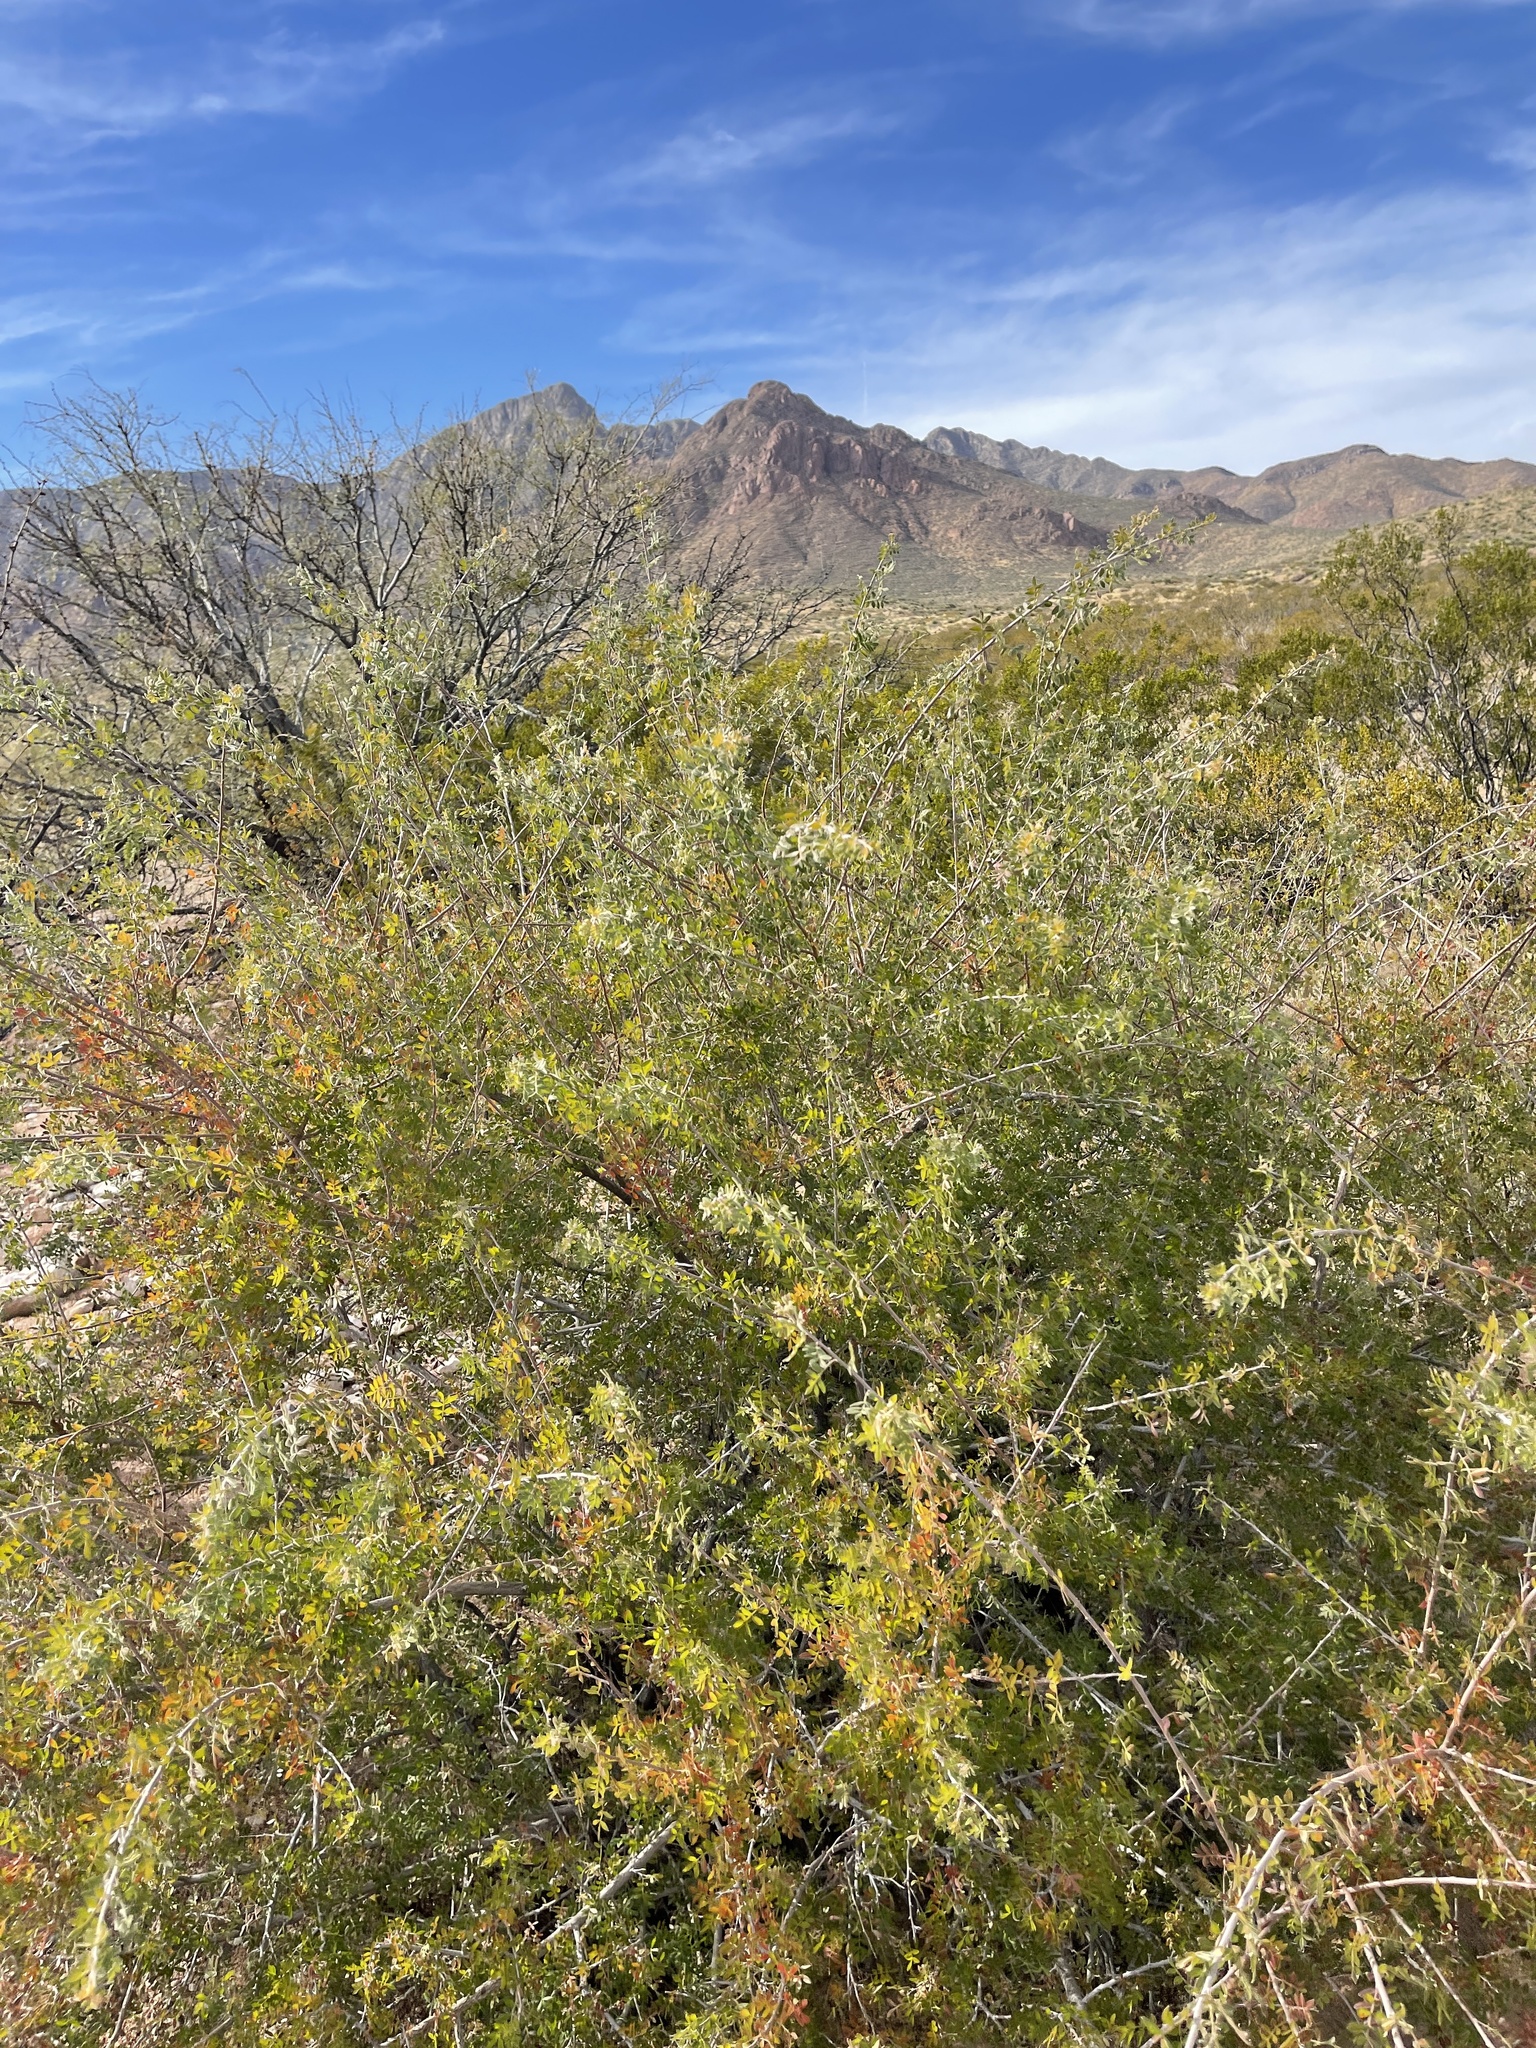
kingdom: Plantae
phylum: Tracheophyta
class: Magnoliopsida
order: Sapindales
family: Anacardiaceae
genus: Rhus
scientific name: Rhus microphylla
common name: Desert sumac
